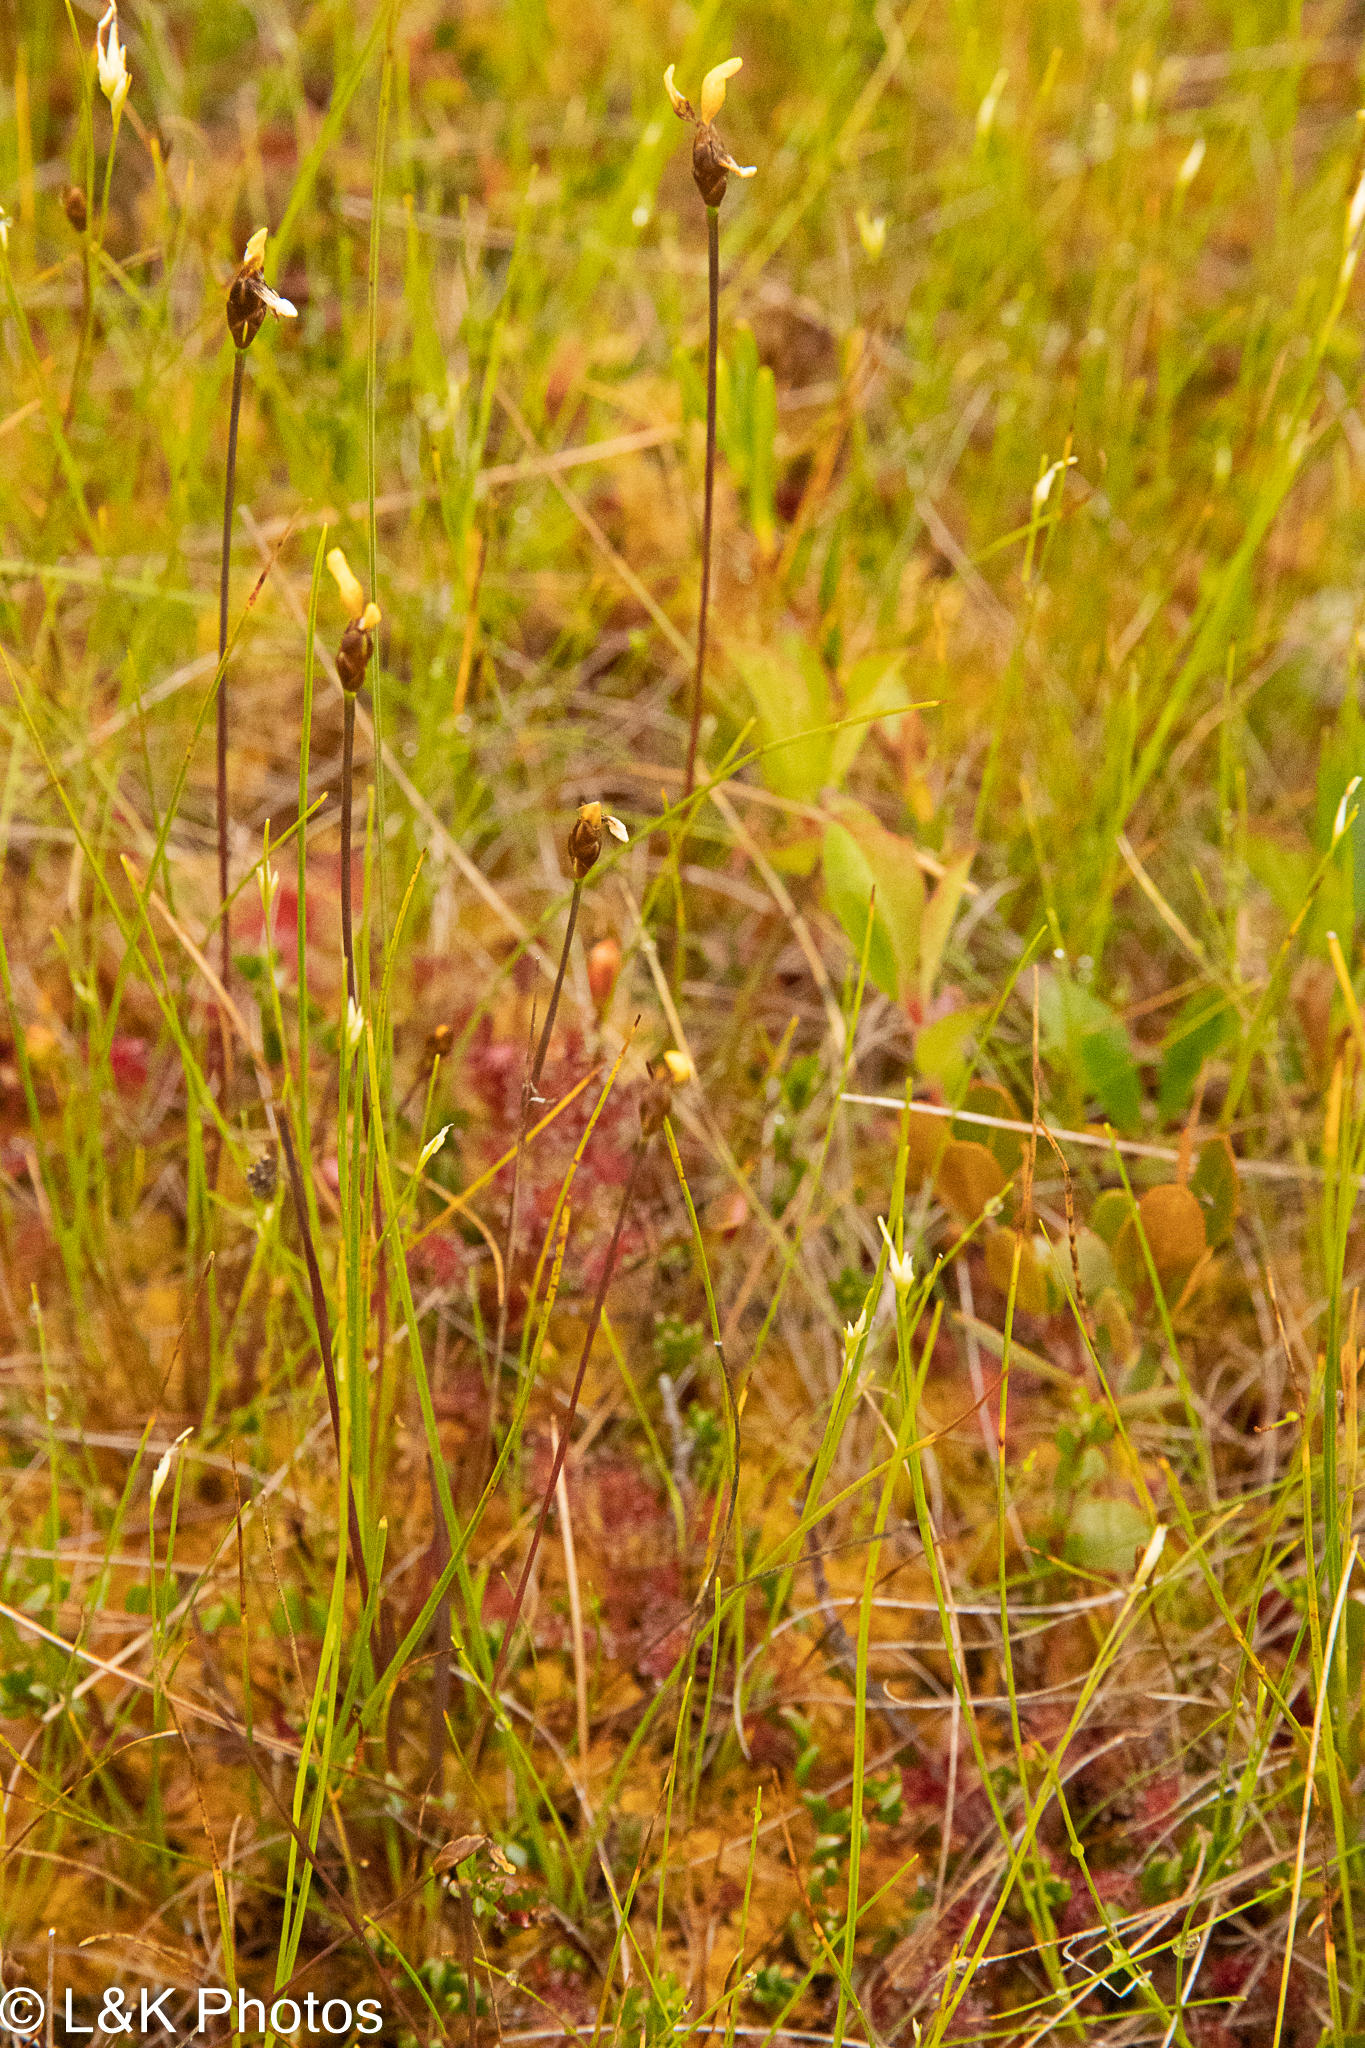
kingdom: Plantae
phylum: Tracheophyta
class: Magnoliopsida
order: Caryophyllales
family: Droseraceae
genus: Drosera
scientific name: Drosera rotundifolia
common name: Round-leaved sundew
